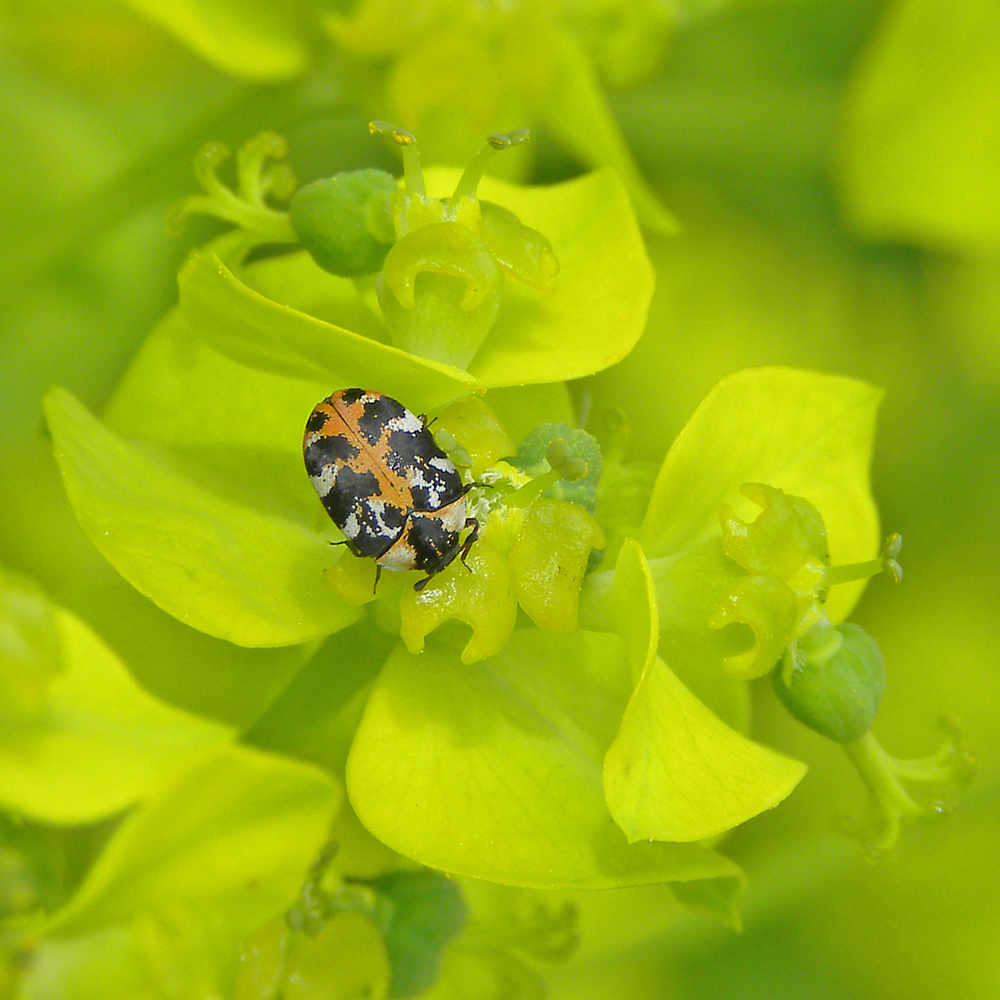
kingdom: Animalia
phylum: Arthropoda
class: Insecta
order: Coleoptera
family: Dermestidae
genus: Anthrenus
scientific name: Anthrenus scrophulariae
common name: Buffalo carpet beetle
